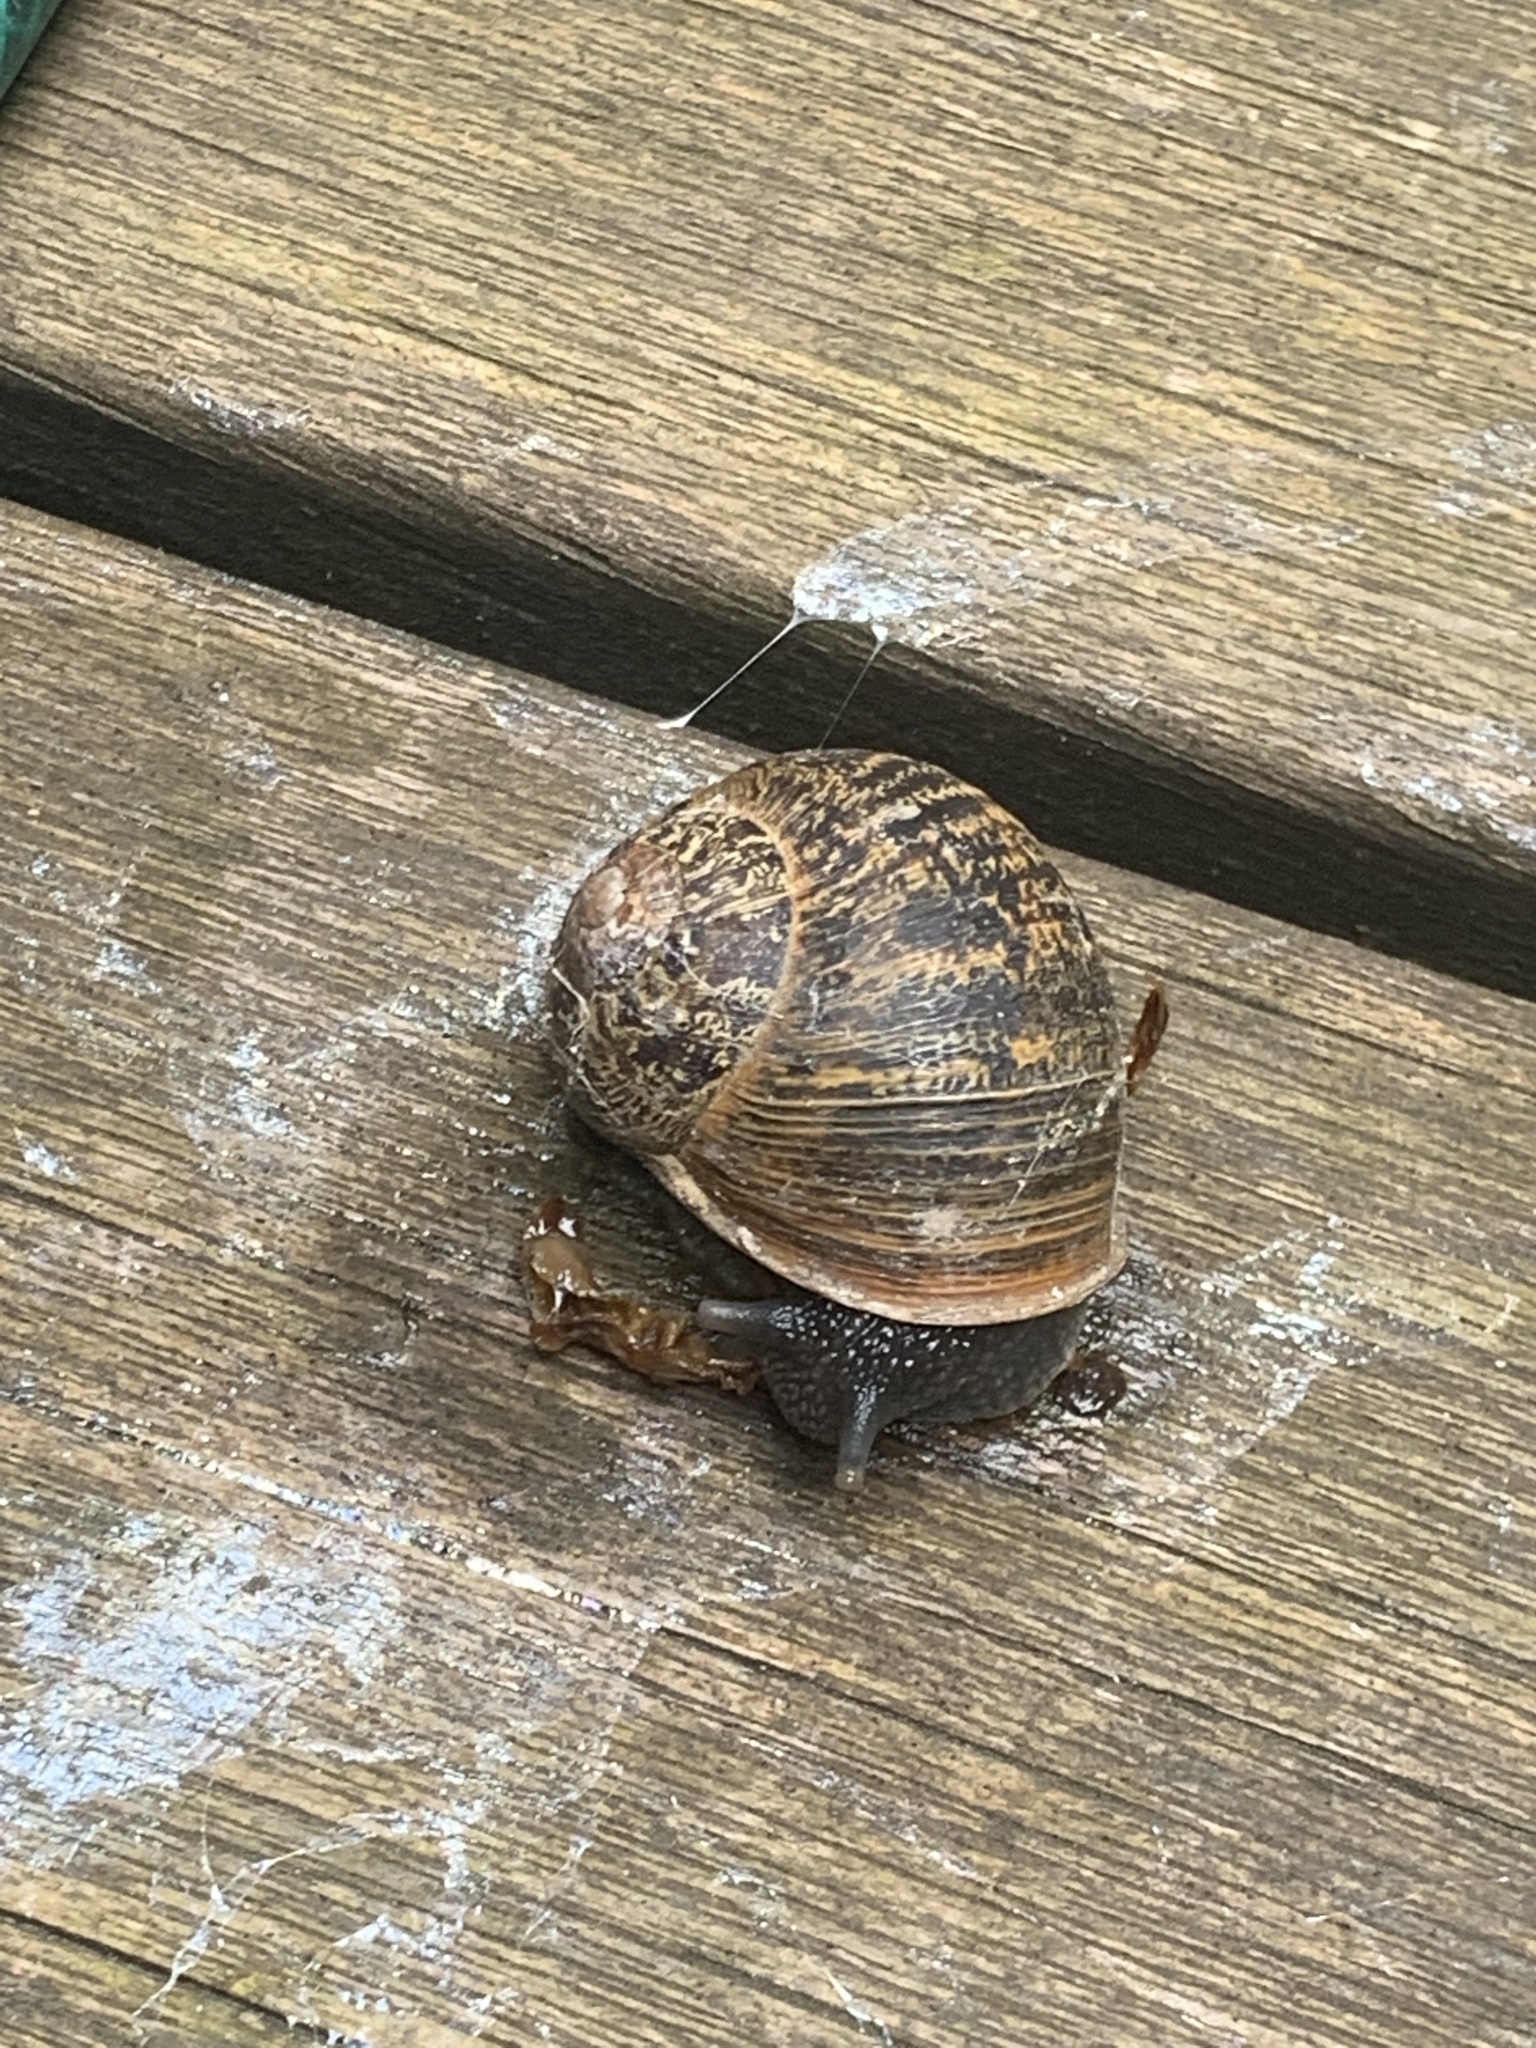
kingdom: Animalia
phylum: Mollusca
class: Gastropoda
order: Stylommatophora
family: Helicidae
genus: Cornu
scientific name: Cornu aspersum
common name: Brown garden snail
